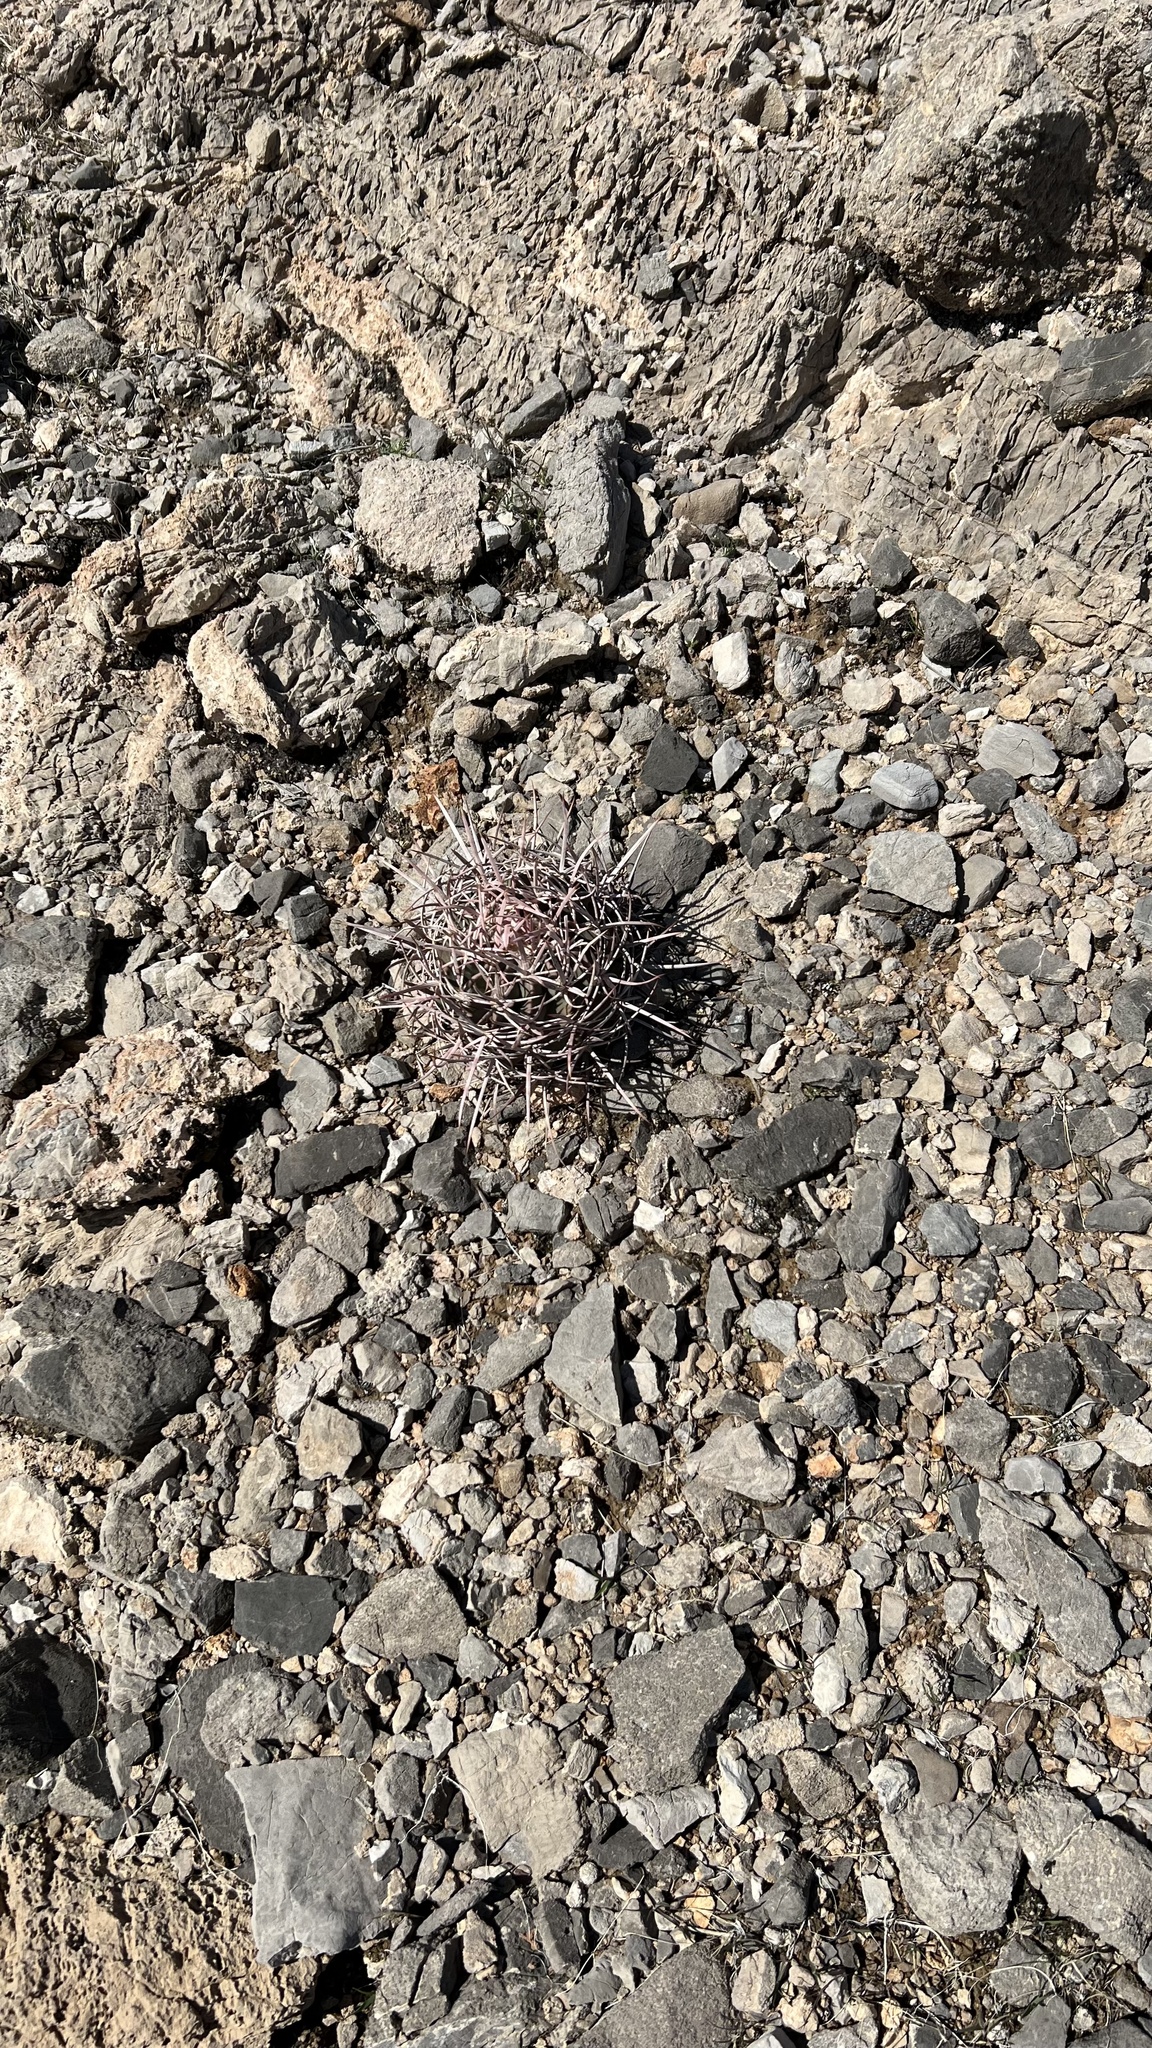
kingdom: Plantae
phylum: Tracheophyta
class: Magnoliopsida
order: Caryophyllales
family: Cactaceae
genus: Echinocactus
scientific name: Echinocactus polycephalus
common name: Cottontop cactus
